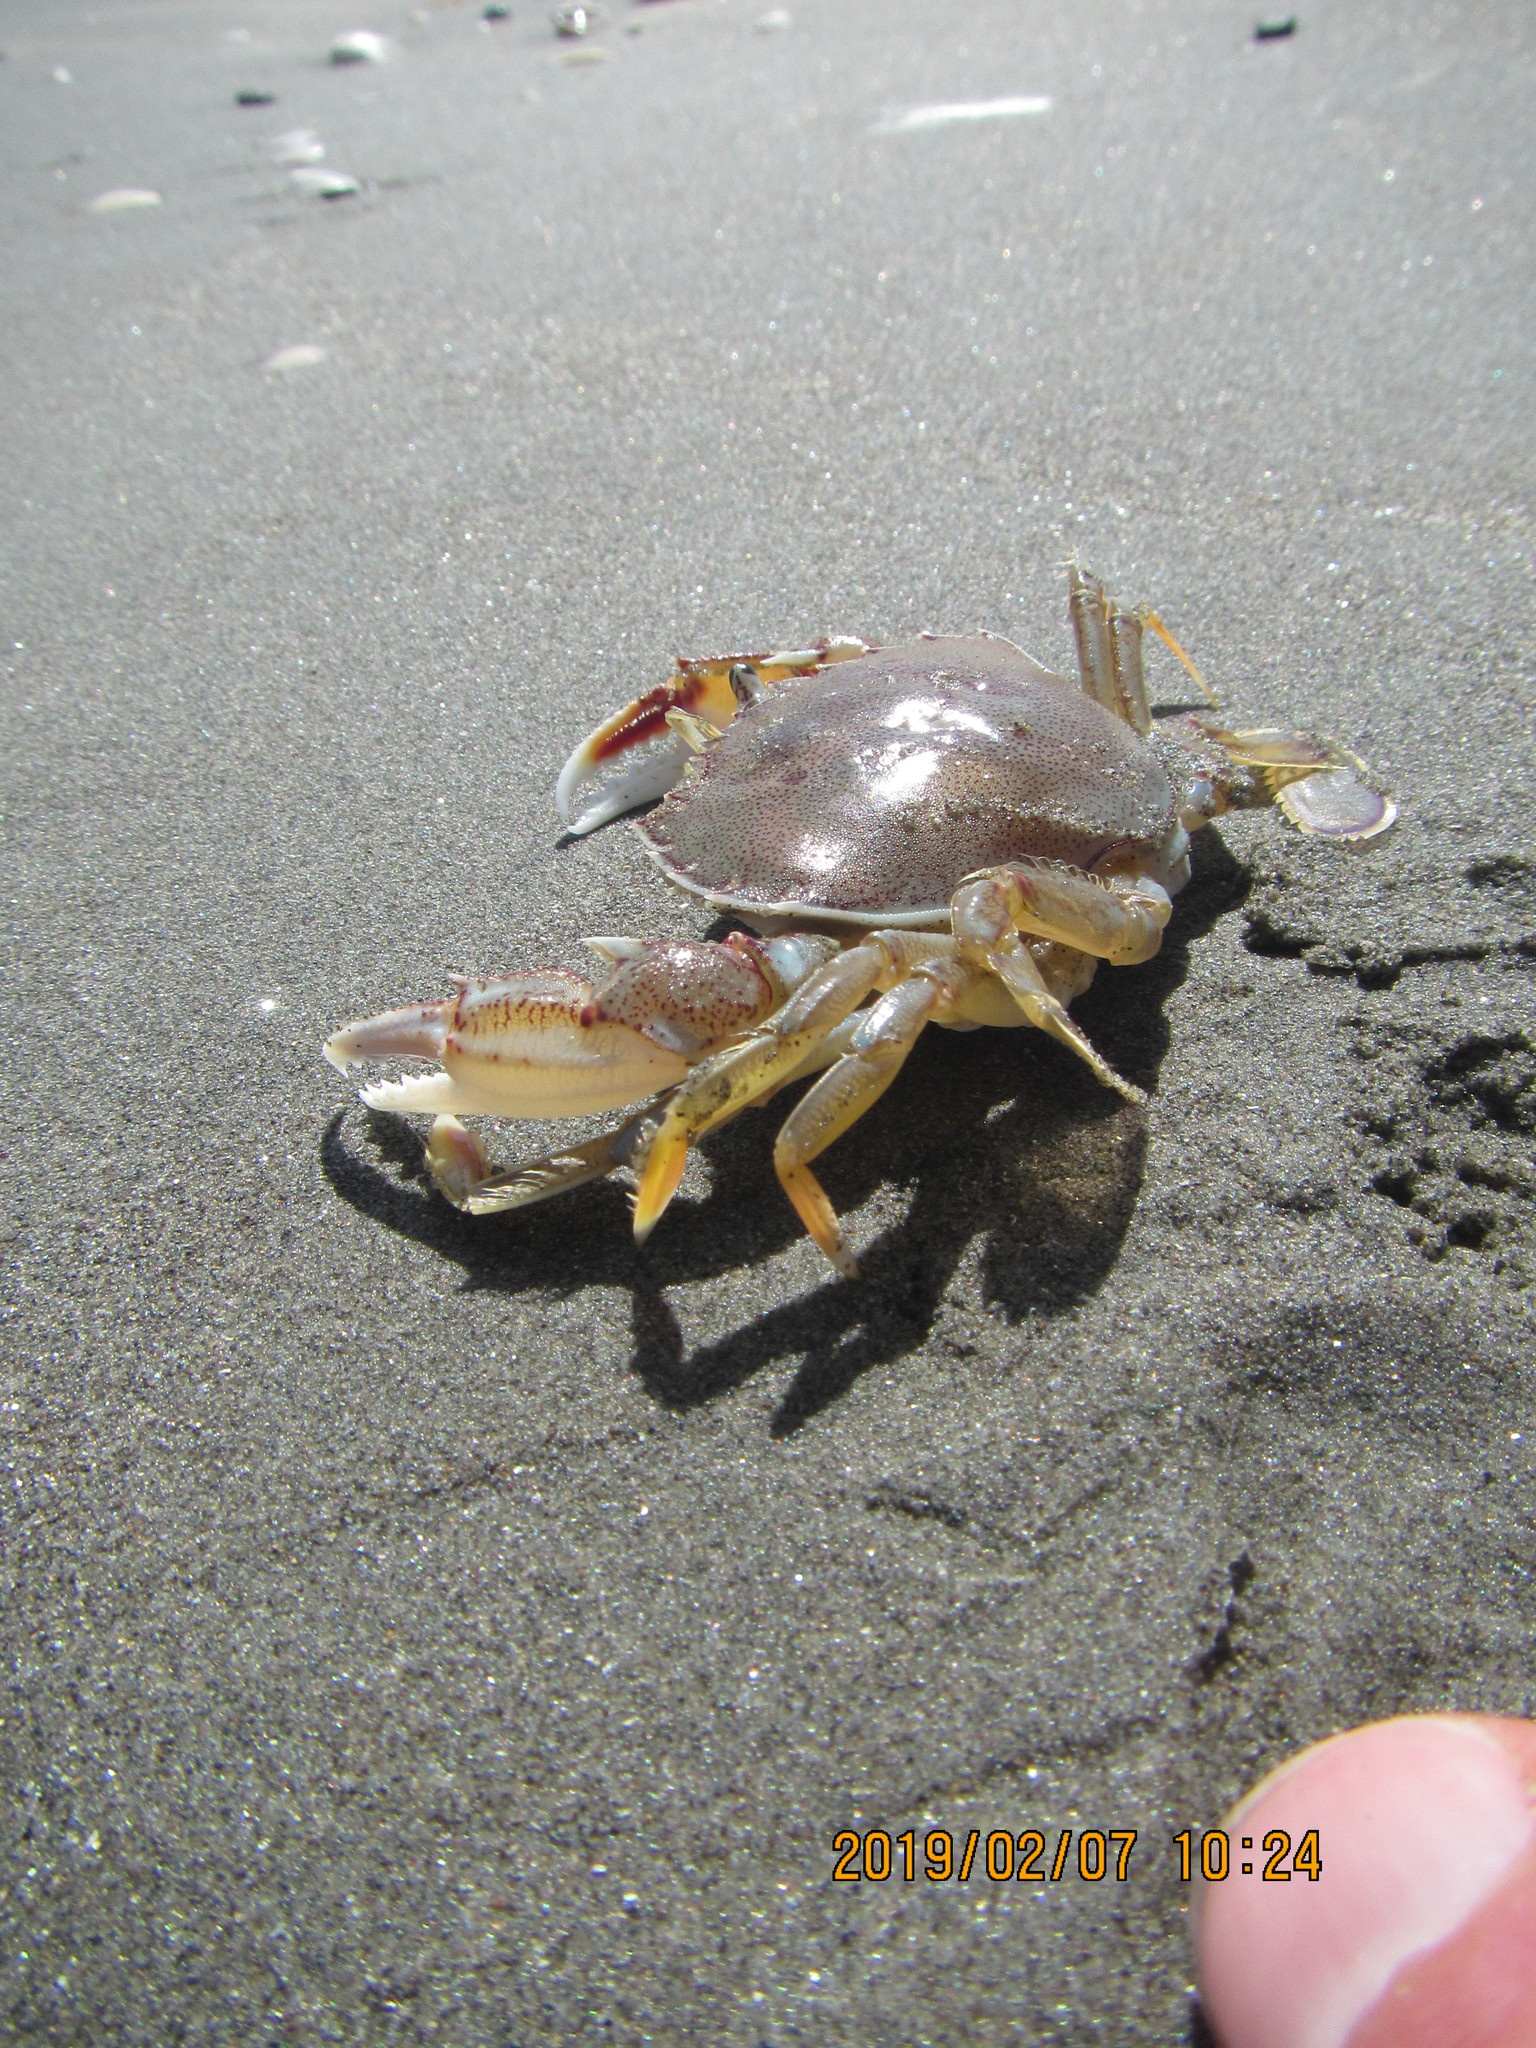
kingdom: Animalia
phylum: Arthropoda
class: Malacostraca
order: Decapoda
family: Ovalipidae
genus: Ovalipes
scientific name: Ovalipes catharus
